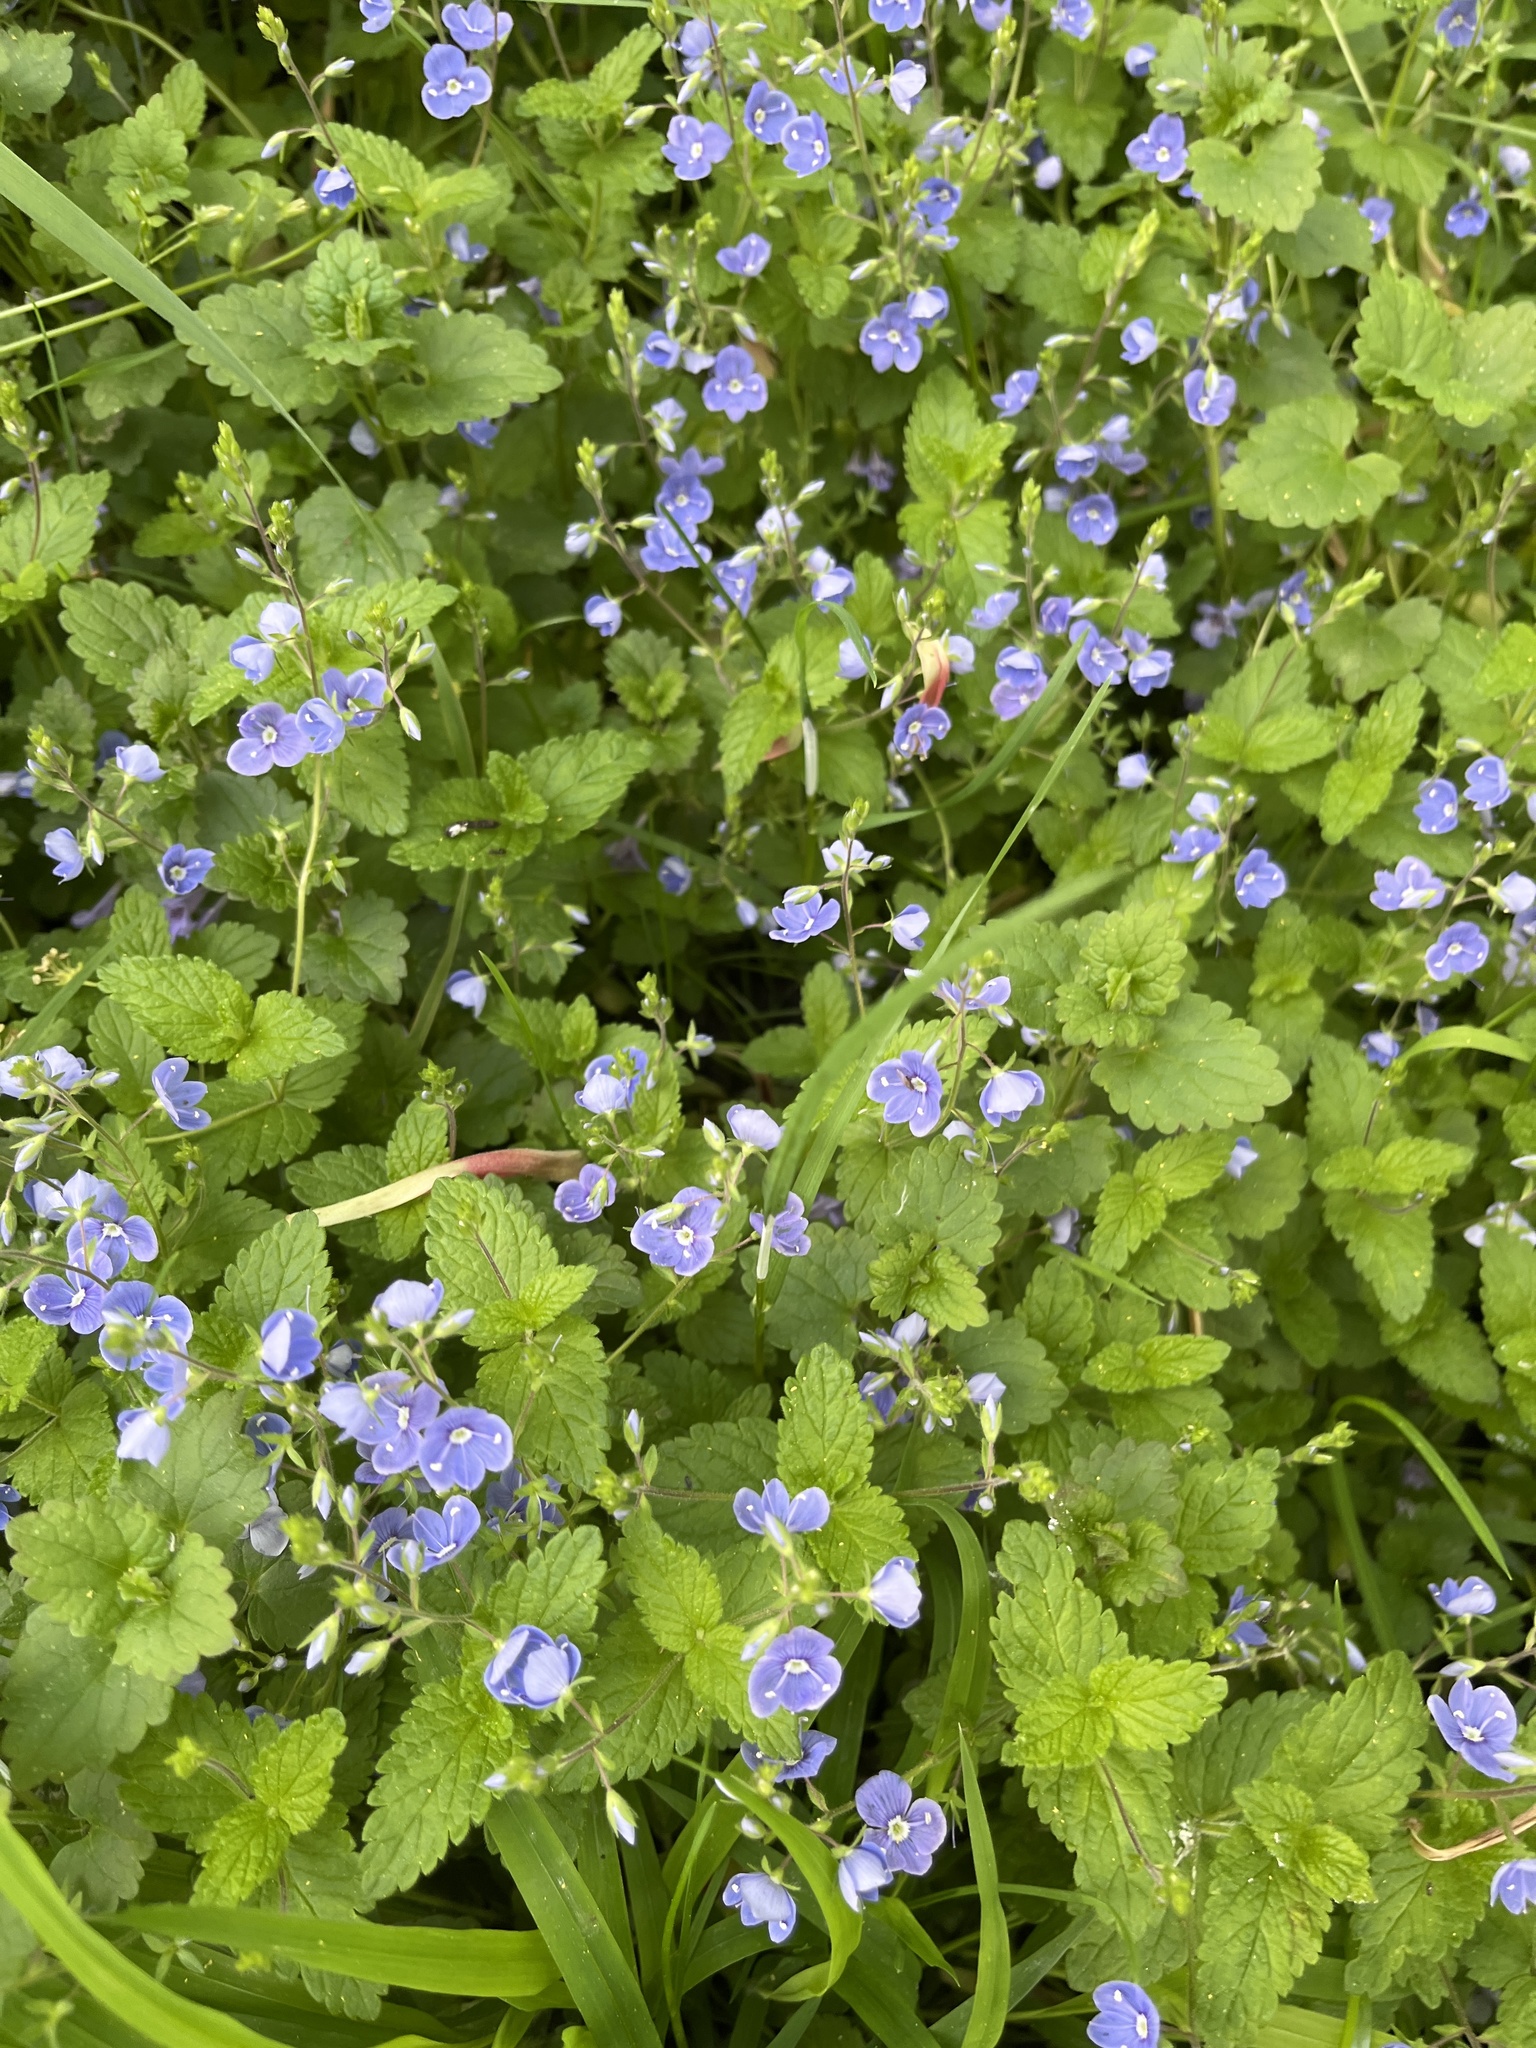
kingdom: Plantae
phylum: Tracheophyta
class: Magnoliopsida
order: Lamiales
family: Plantaginaceae
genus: Veronica
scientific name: Veronica chamaedrys
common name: Germander speedwell
